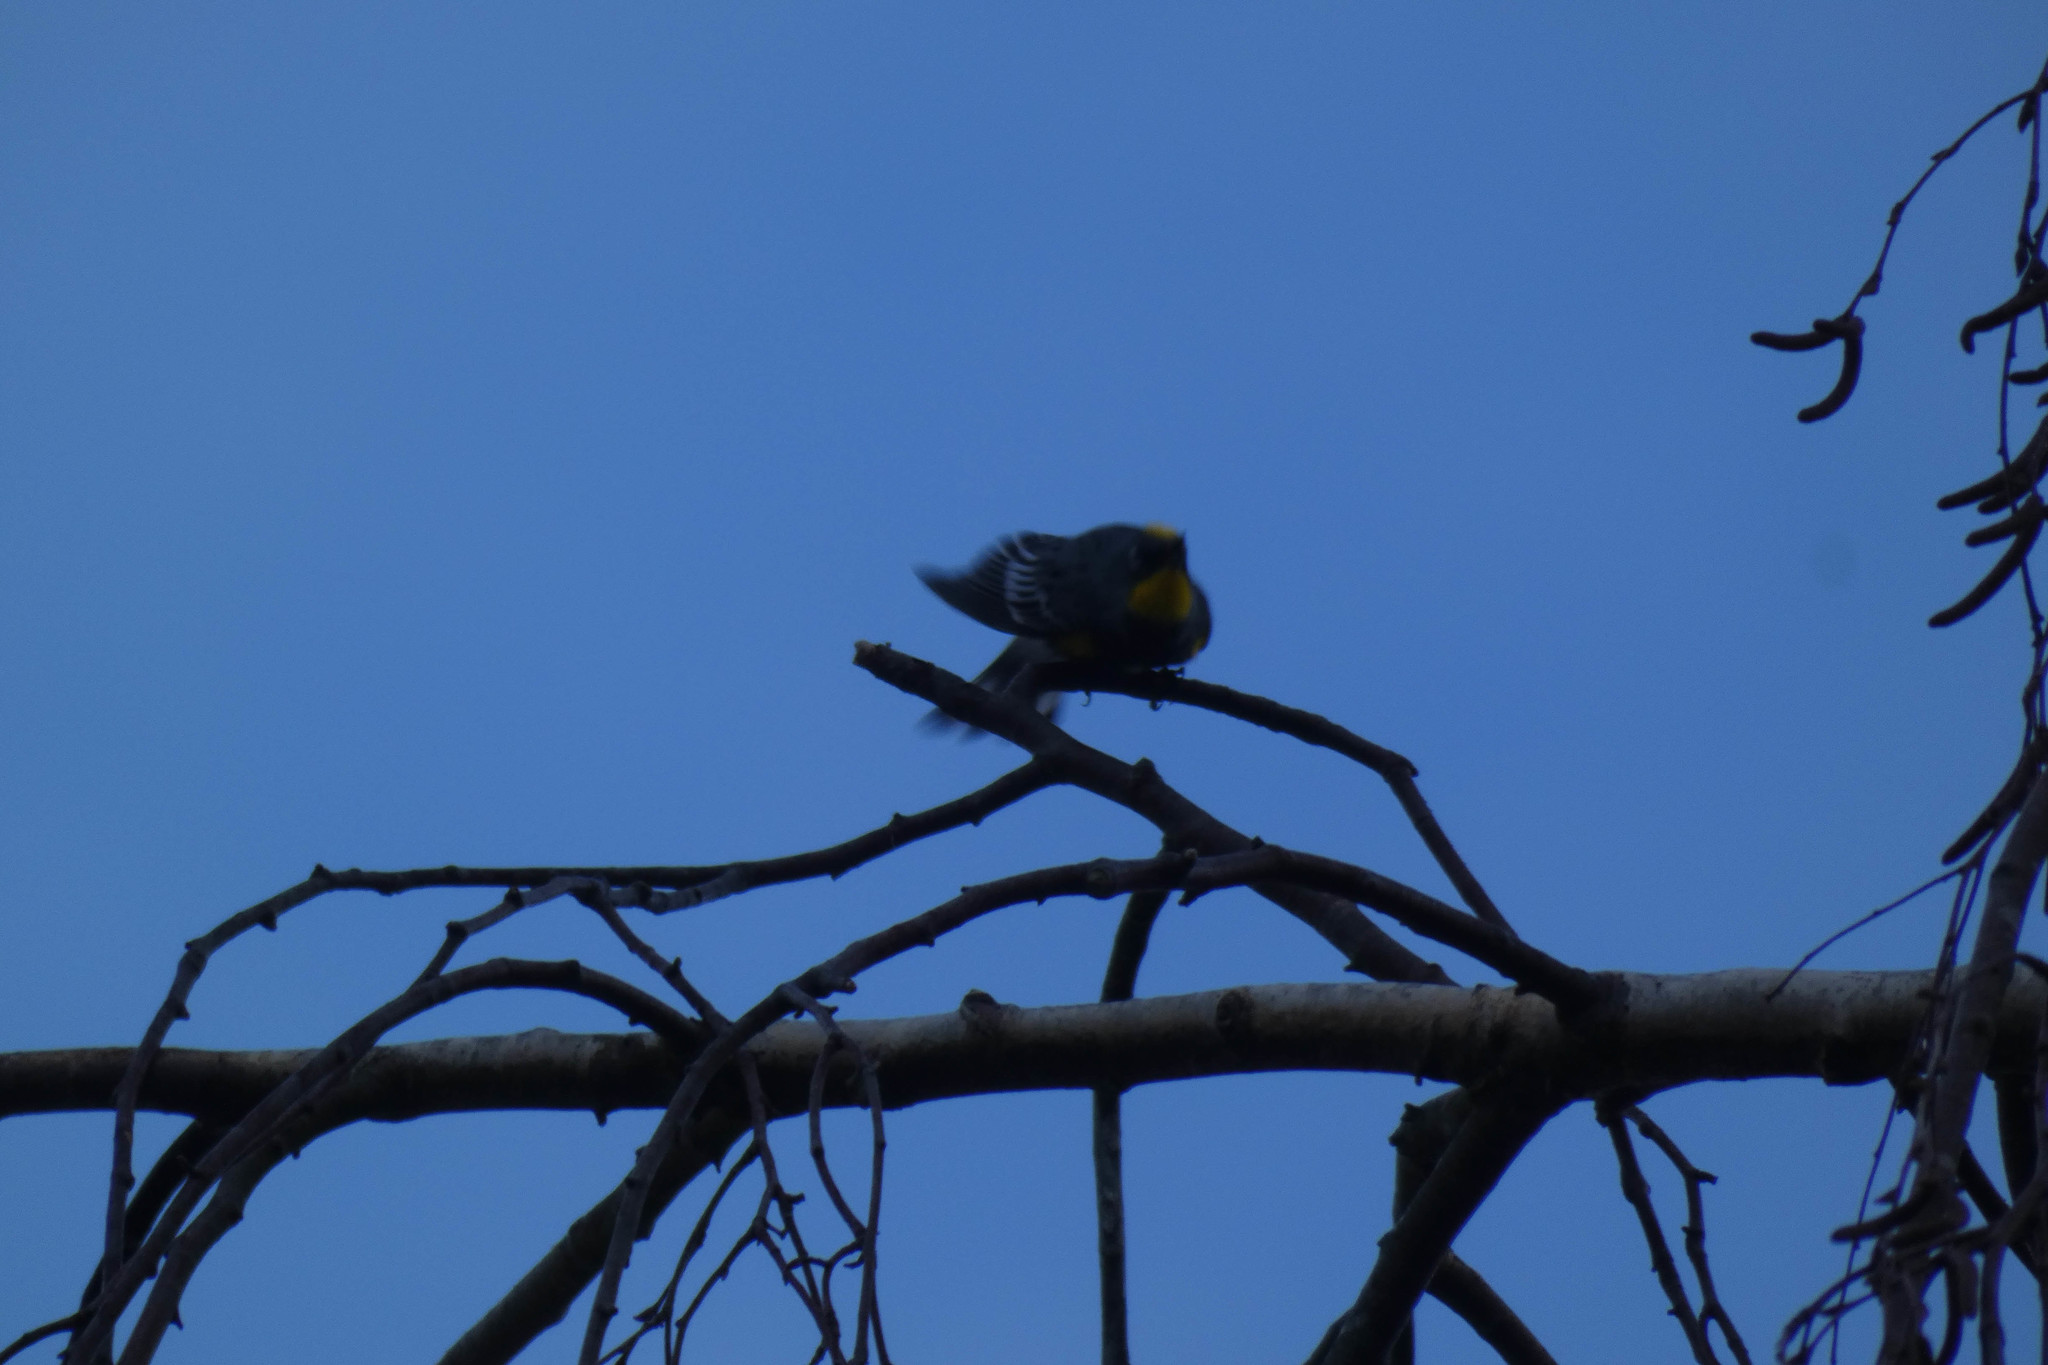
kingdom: Animalia
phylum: Chordata
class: Aves
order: Passeriformes
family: Parulidae
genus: Setophaga
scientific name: Setophaga coronata
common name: Myrtle warbler
